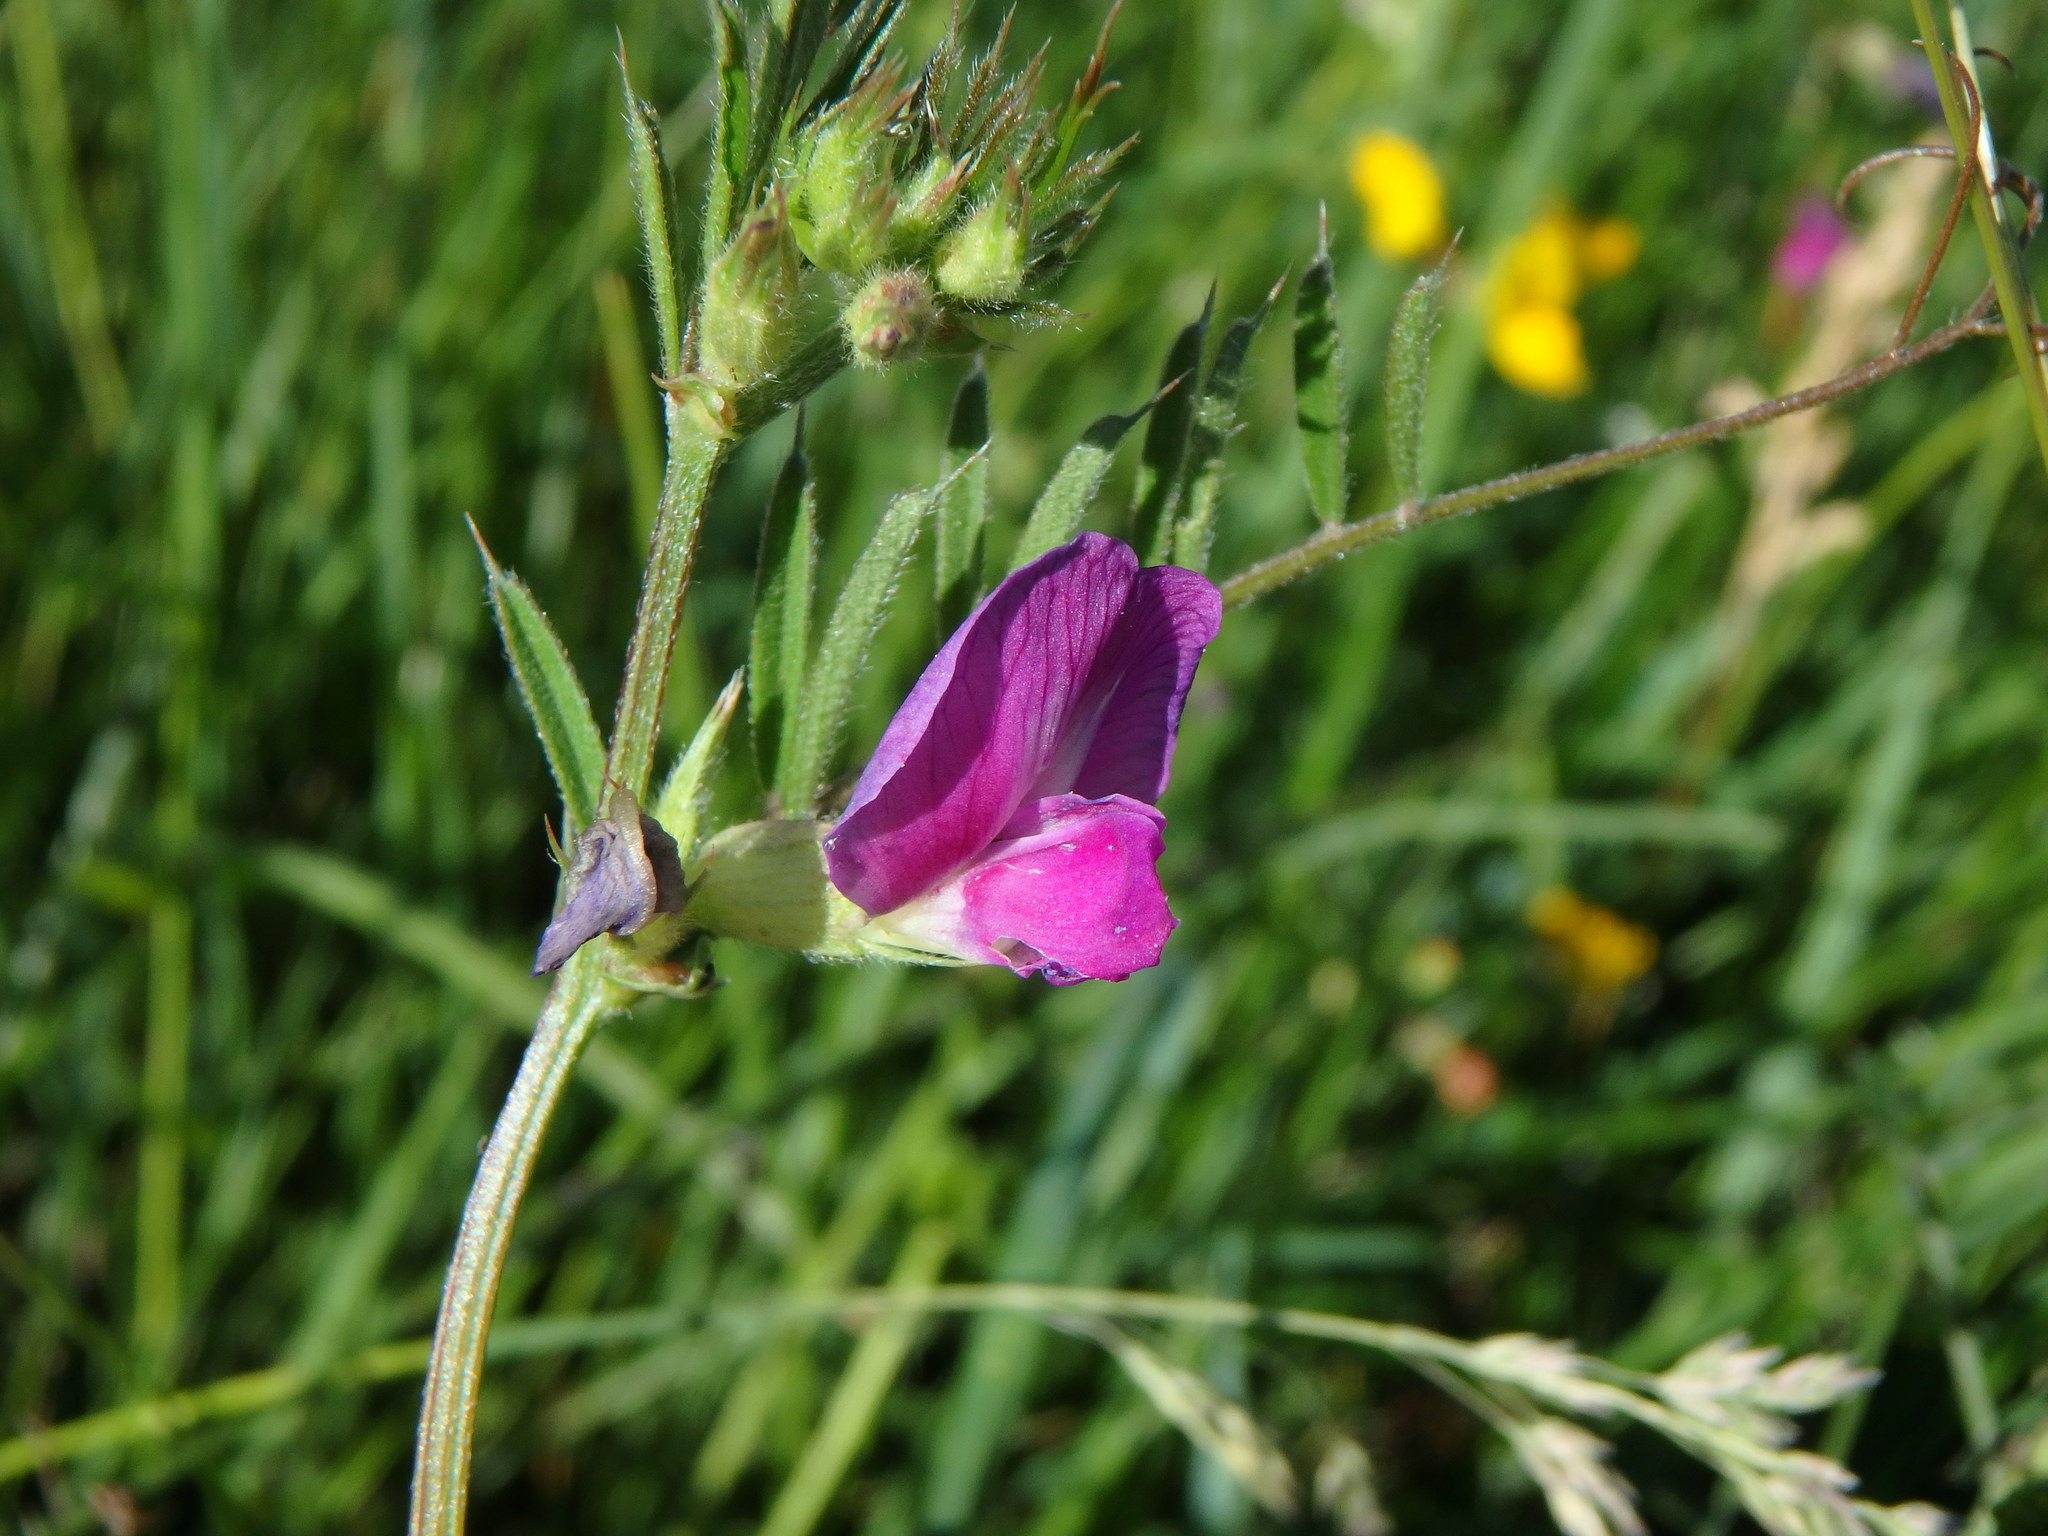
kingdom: Plantae
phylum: Tracheophyta
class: Magnoliopsida
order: Fabales
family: Fabaceae
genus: Vicia
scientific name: Vicia sativa
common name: Garden vetch
